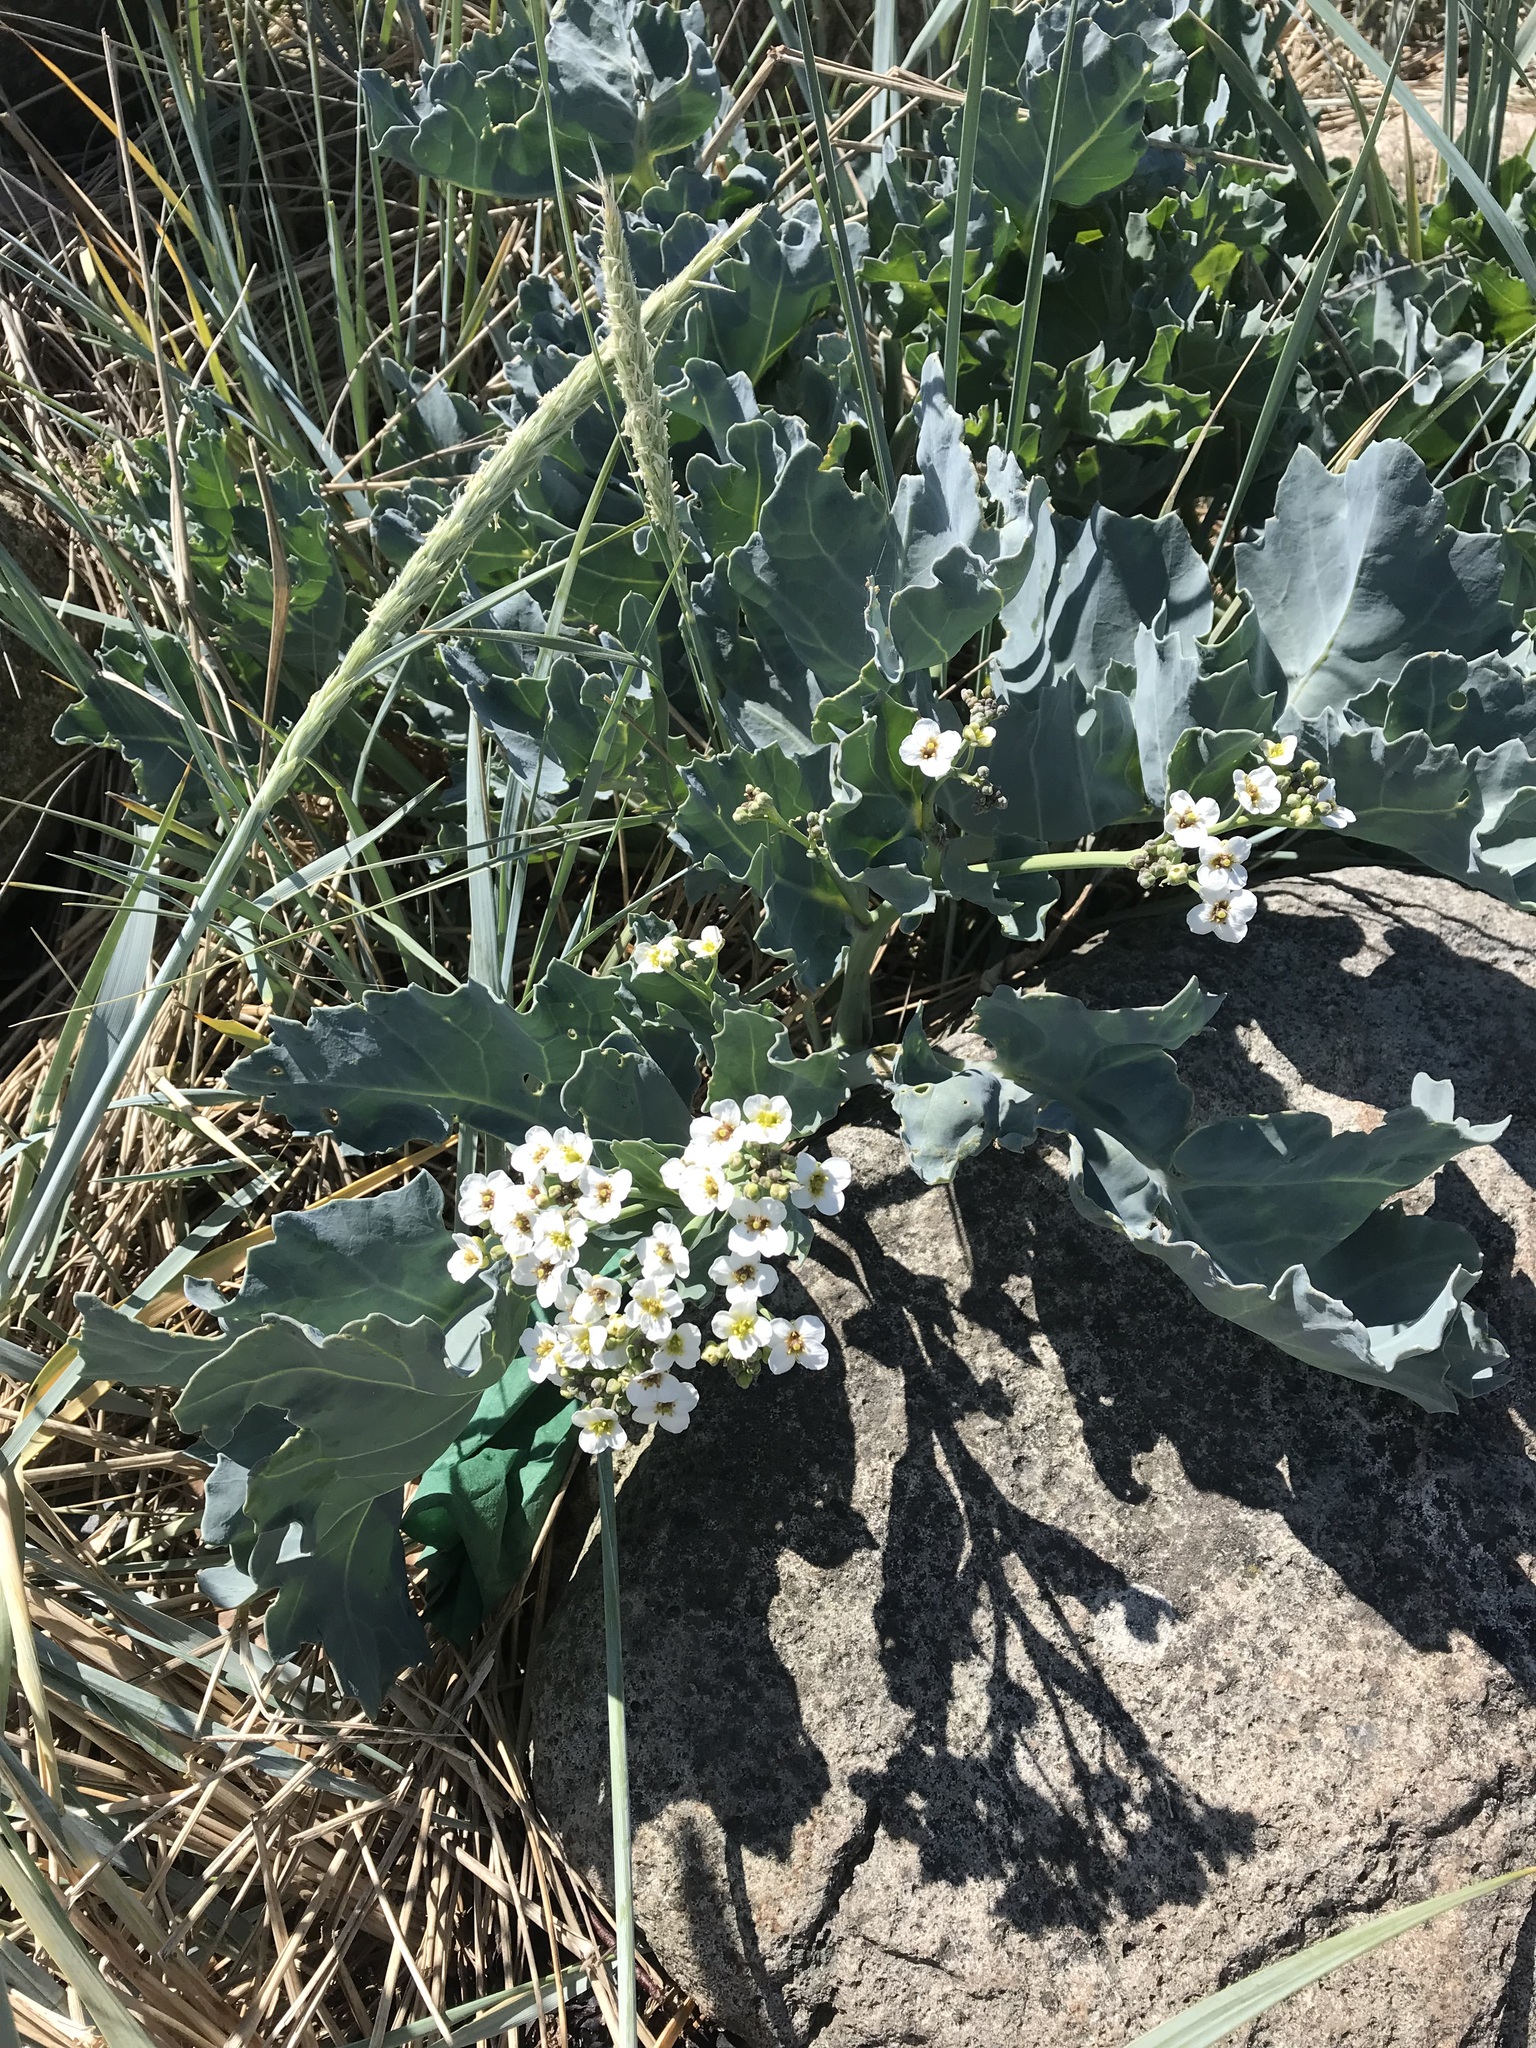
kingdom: Plantae
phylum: Tracheophyta
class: Magnoliopsida
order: Brassicales
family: Brassicaceae
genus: Crambe
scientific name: Crambe maritima
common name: Sea-kale
